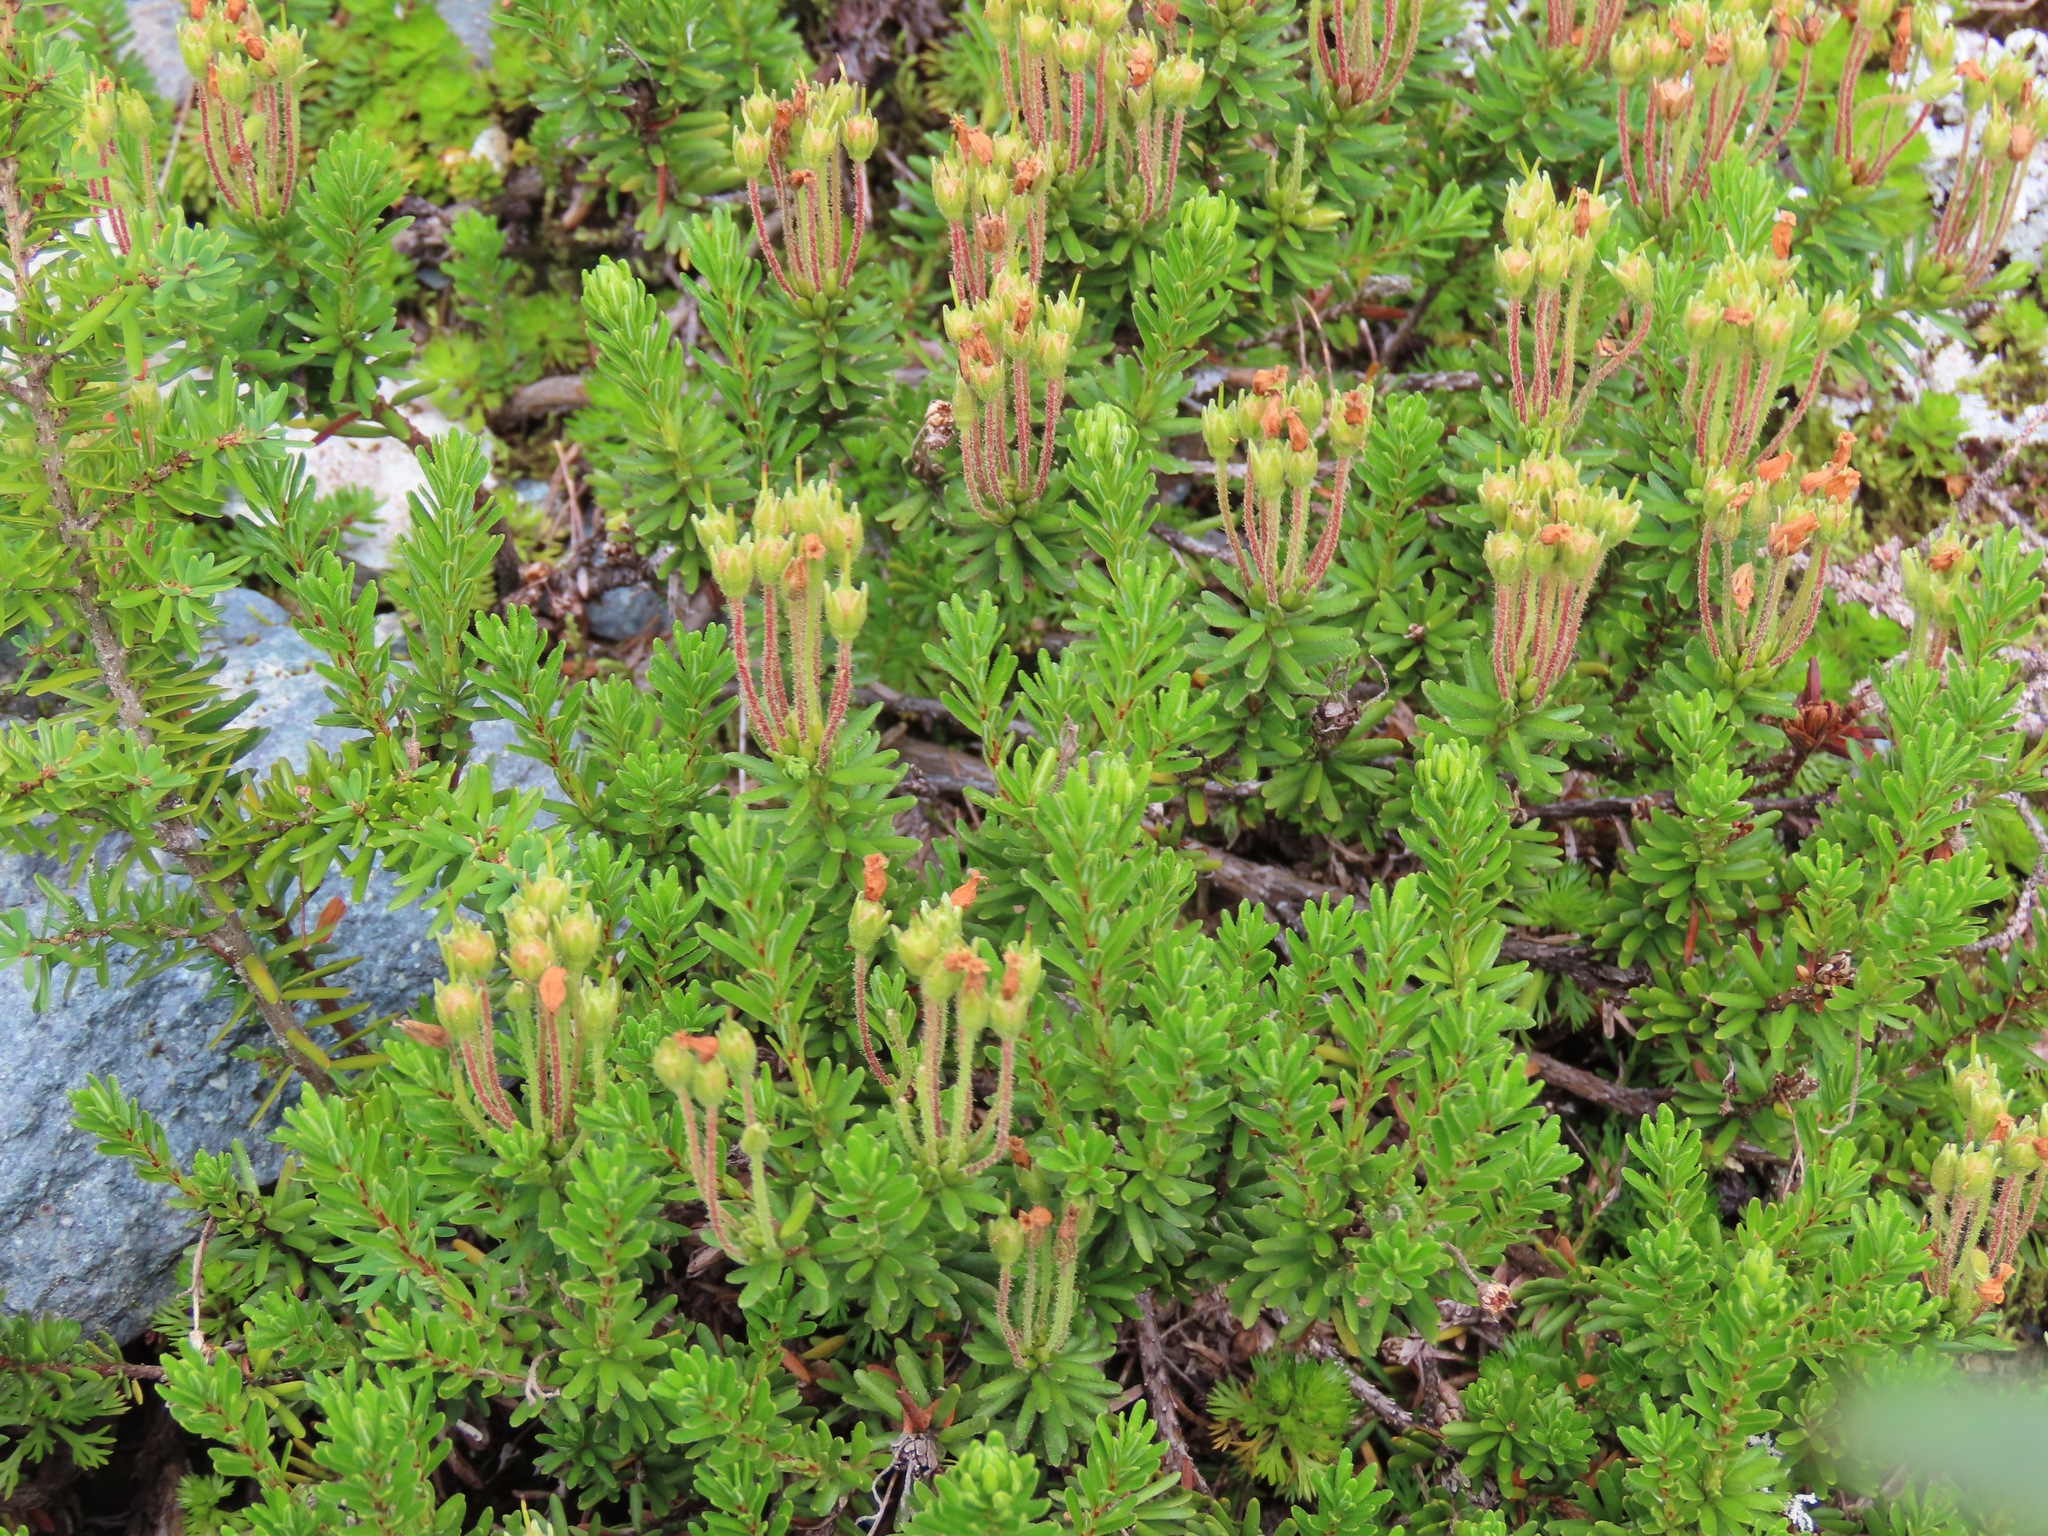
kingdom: Plantae
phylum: Tracheophyta
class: Magnoliopsida
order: Ericales
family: Ericaceae
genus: Phyllodoce
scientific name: Phyllodoce glanduliflora
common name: Cream mountain heather
